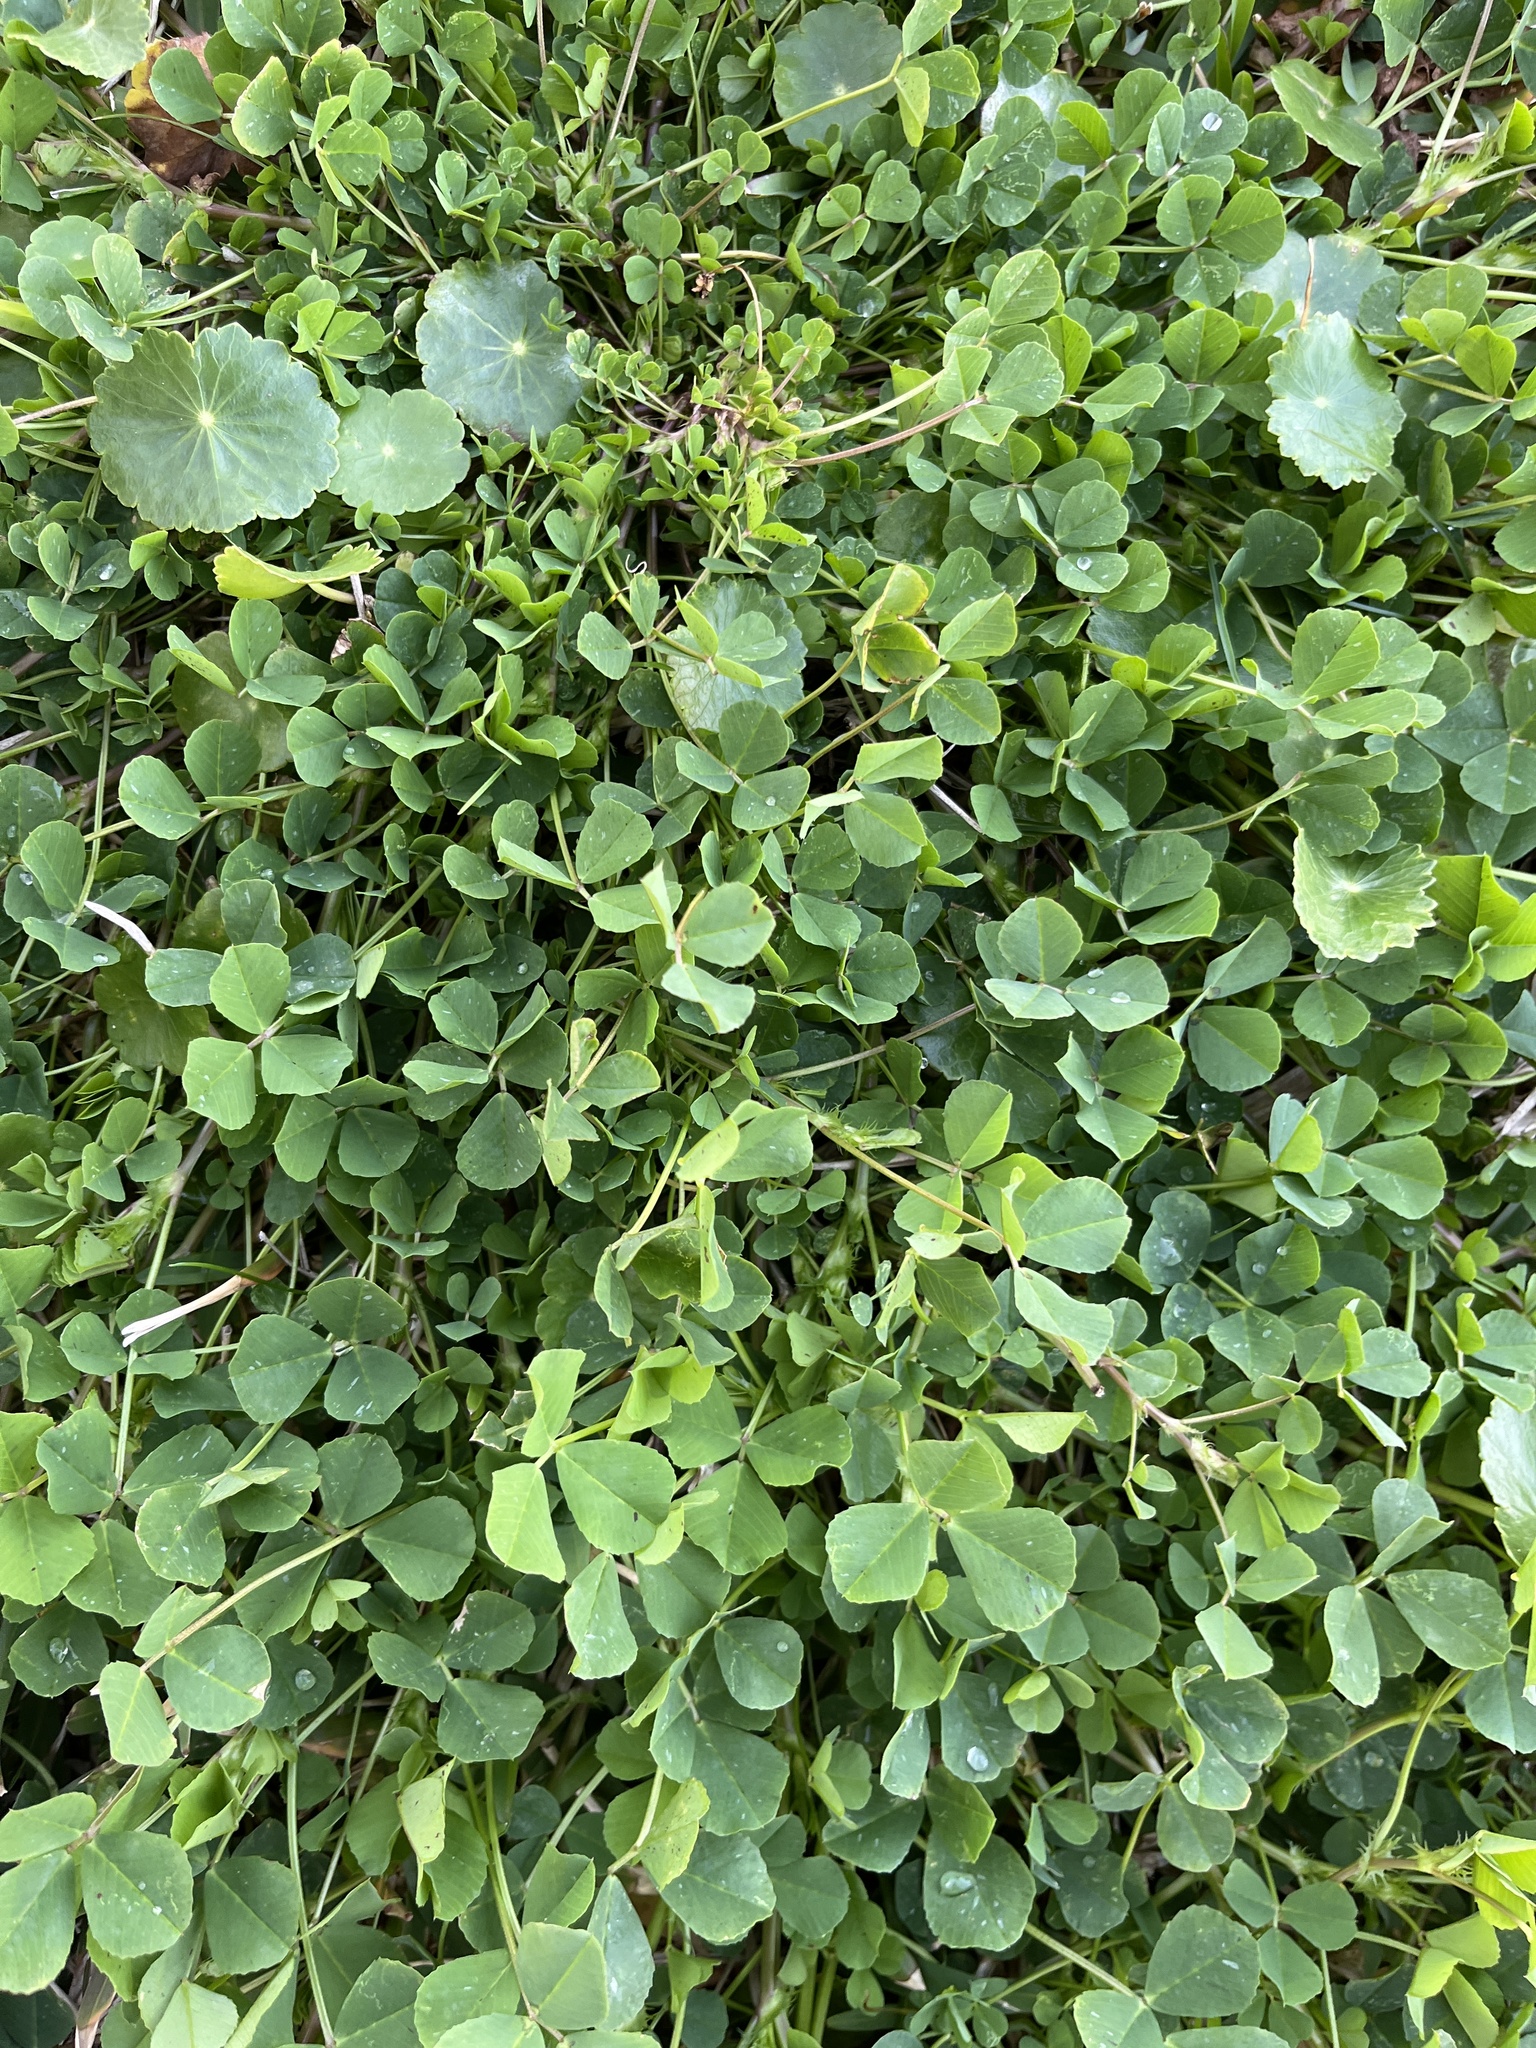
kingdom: Plantae
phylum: Tracheophyta
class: Magnoliopsida
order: Fabales
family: Fabaceae
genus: Medicago
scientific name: Medicago polymorpha
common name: Burclover
